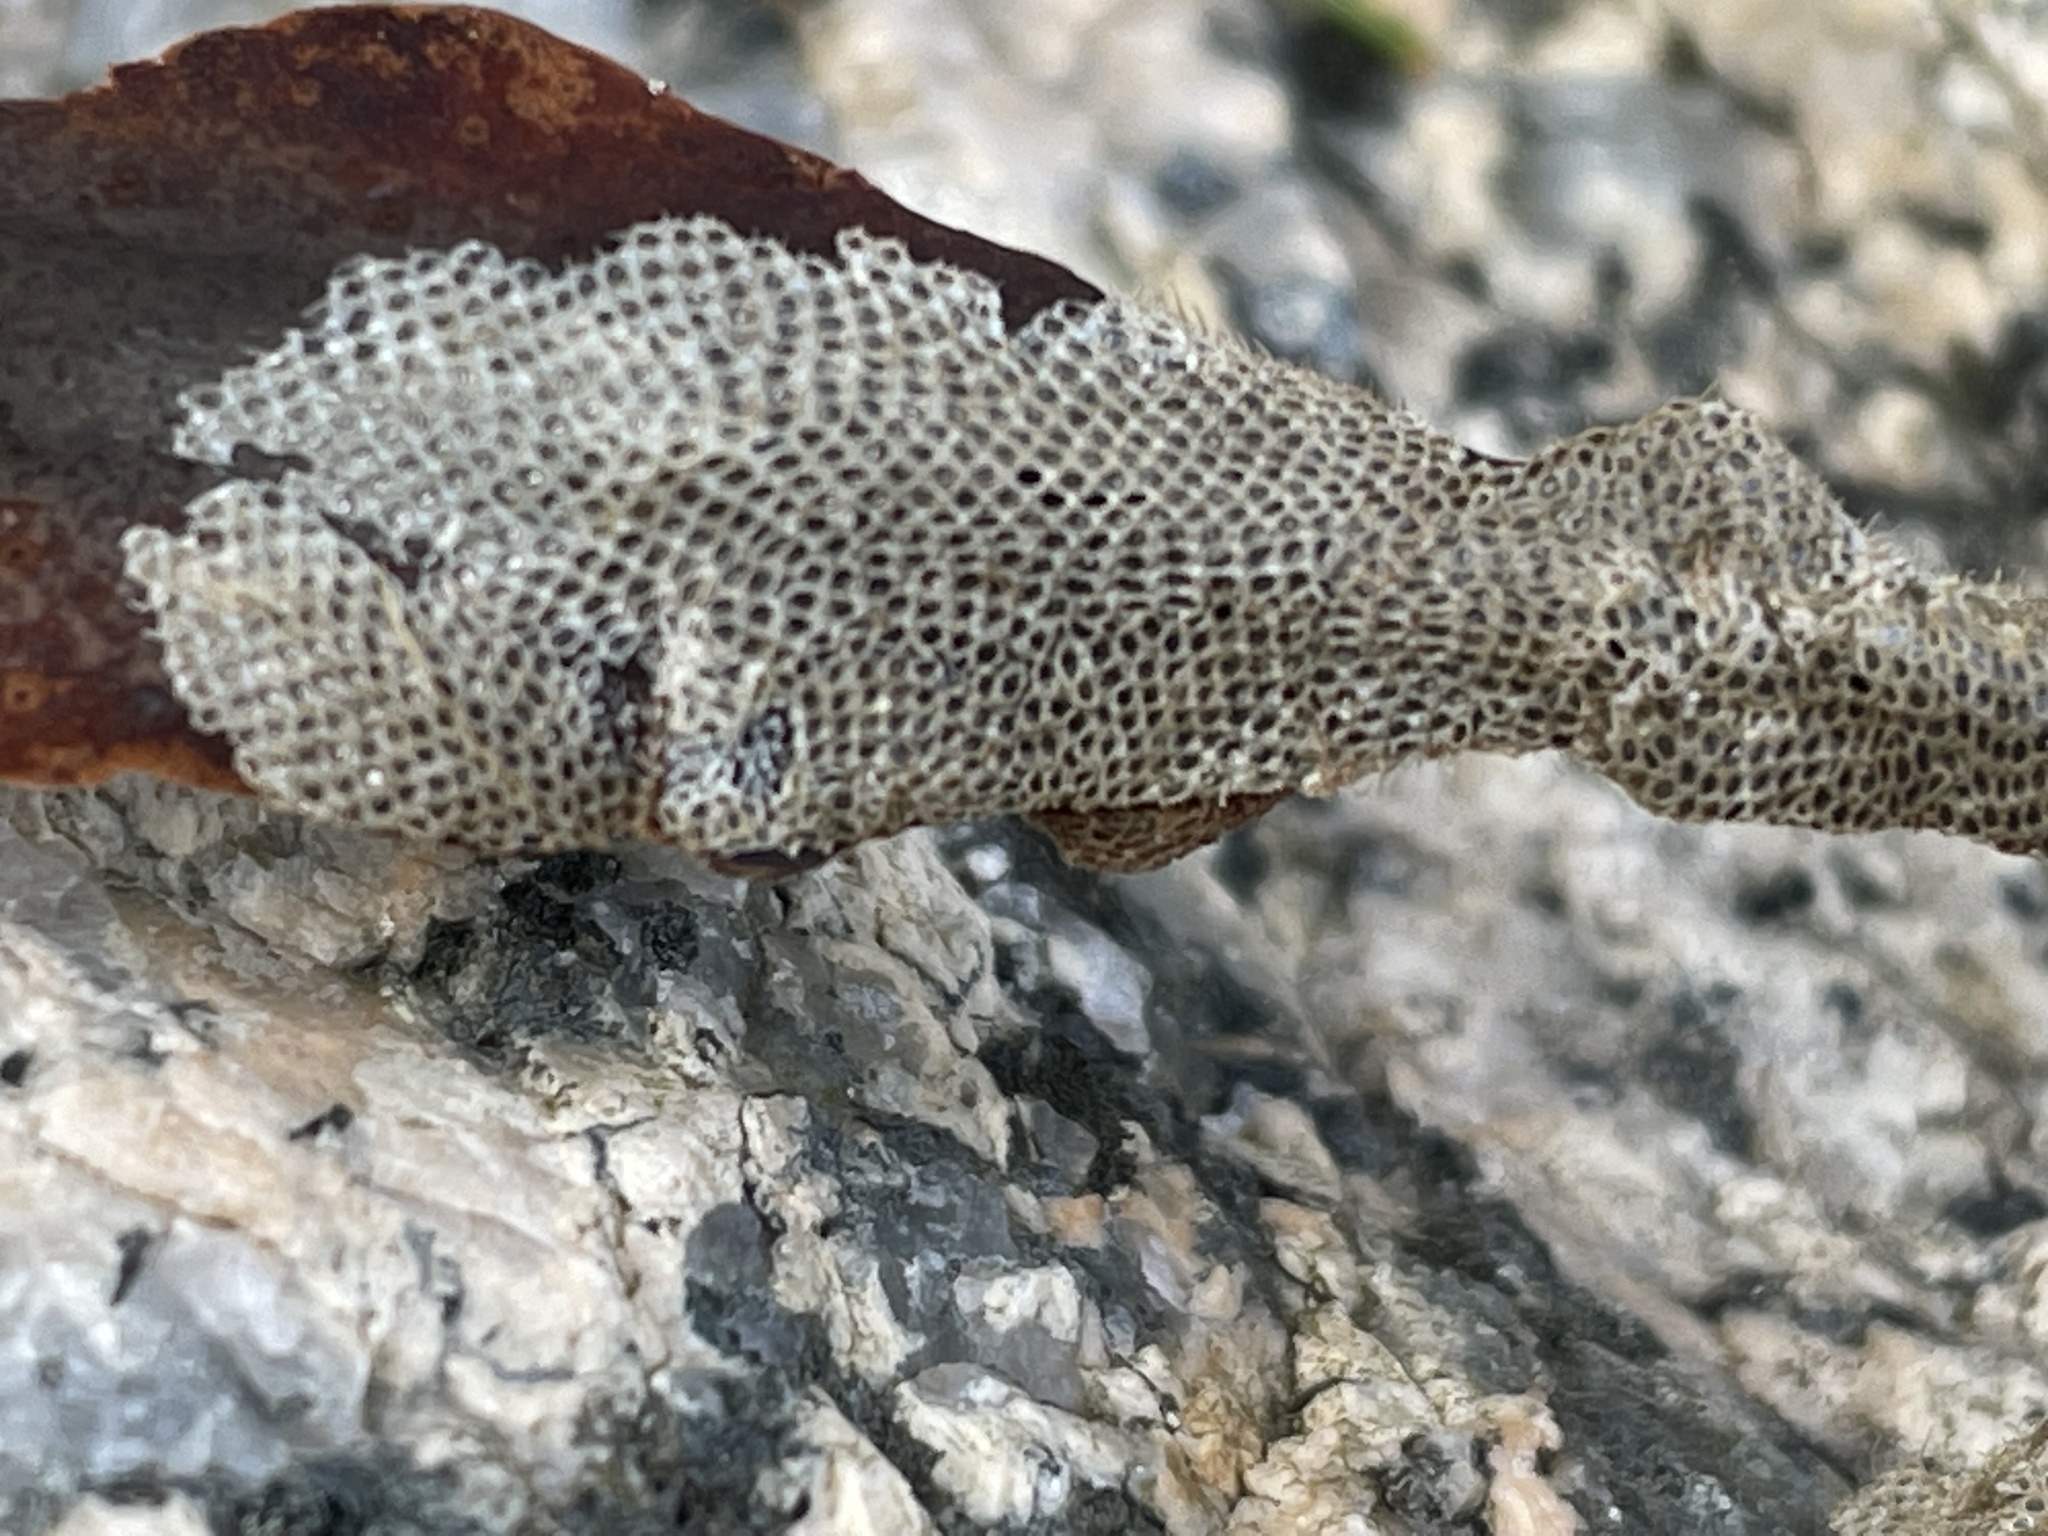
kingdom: Animalia
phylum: Bryozoa
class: Gymnolaemata
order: Cheilostomatida
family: Electridae
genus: Electra
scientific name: Electra pilosa
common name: Hairy sea-mat
